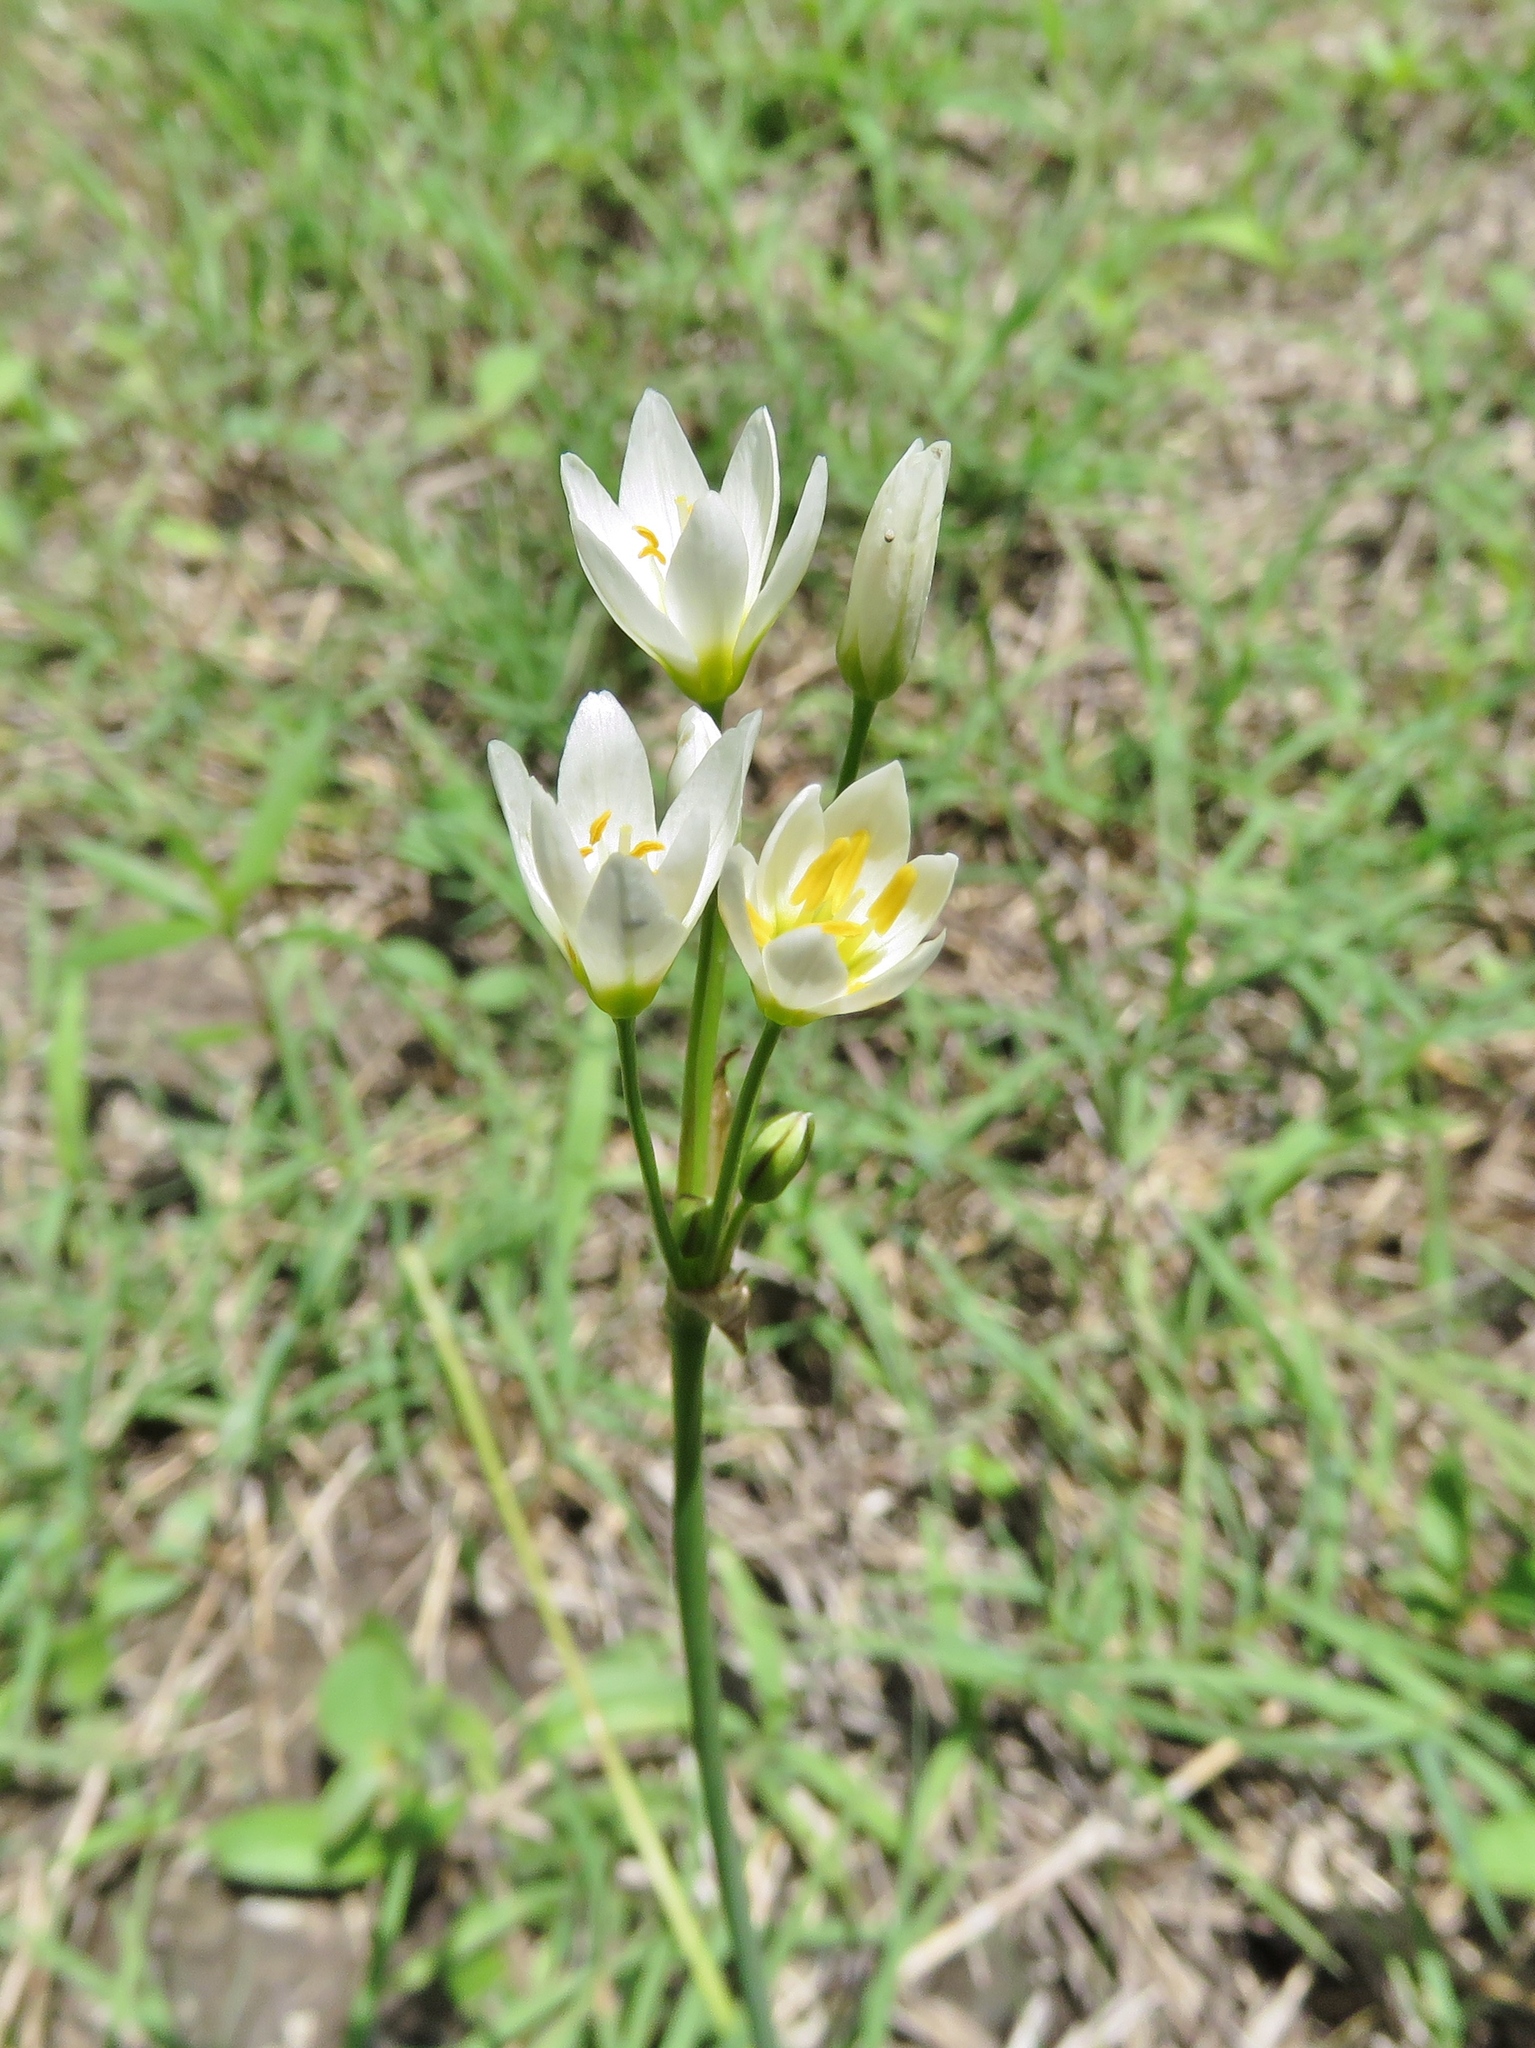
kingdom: Plantae
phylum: Tracheophyta
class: Liliopsida
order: Asparagales
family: Amaryllidaceae
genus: Nothoscordum
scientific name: Nothoscordum bivalve
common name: Crow-poison
